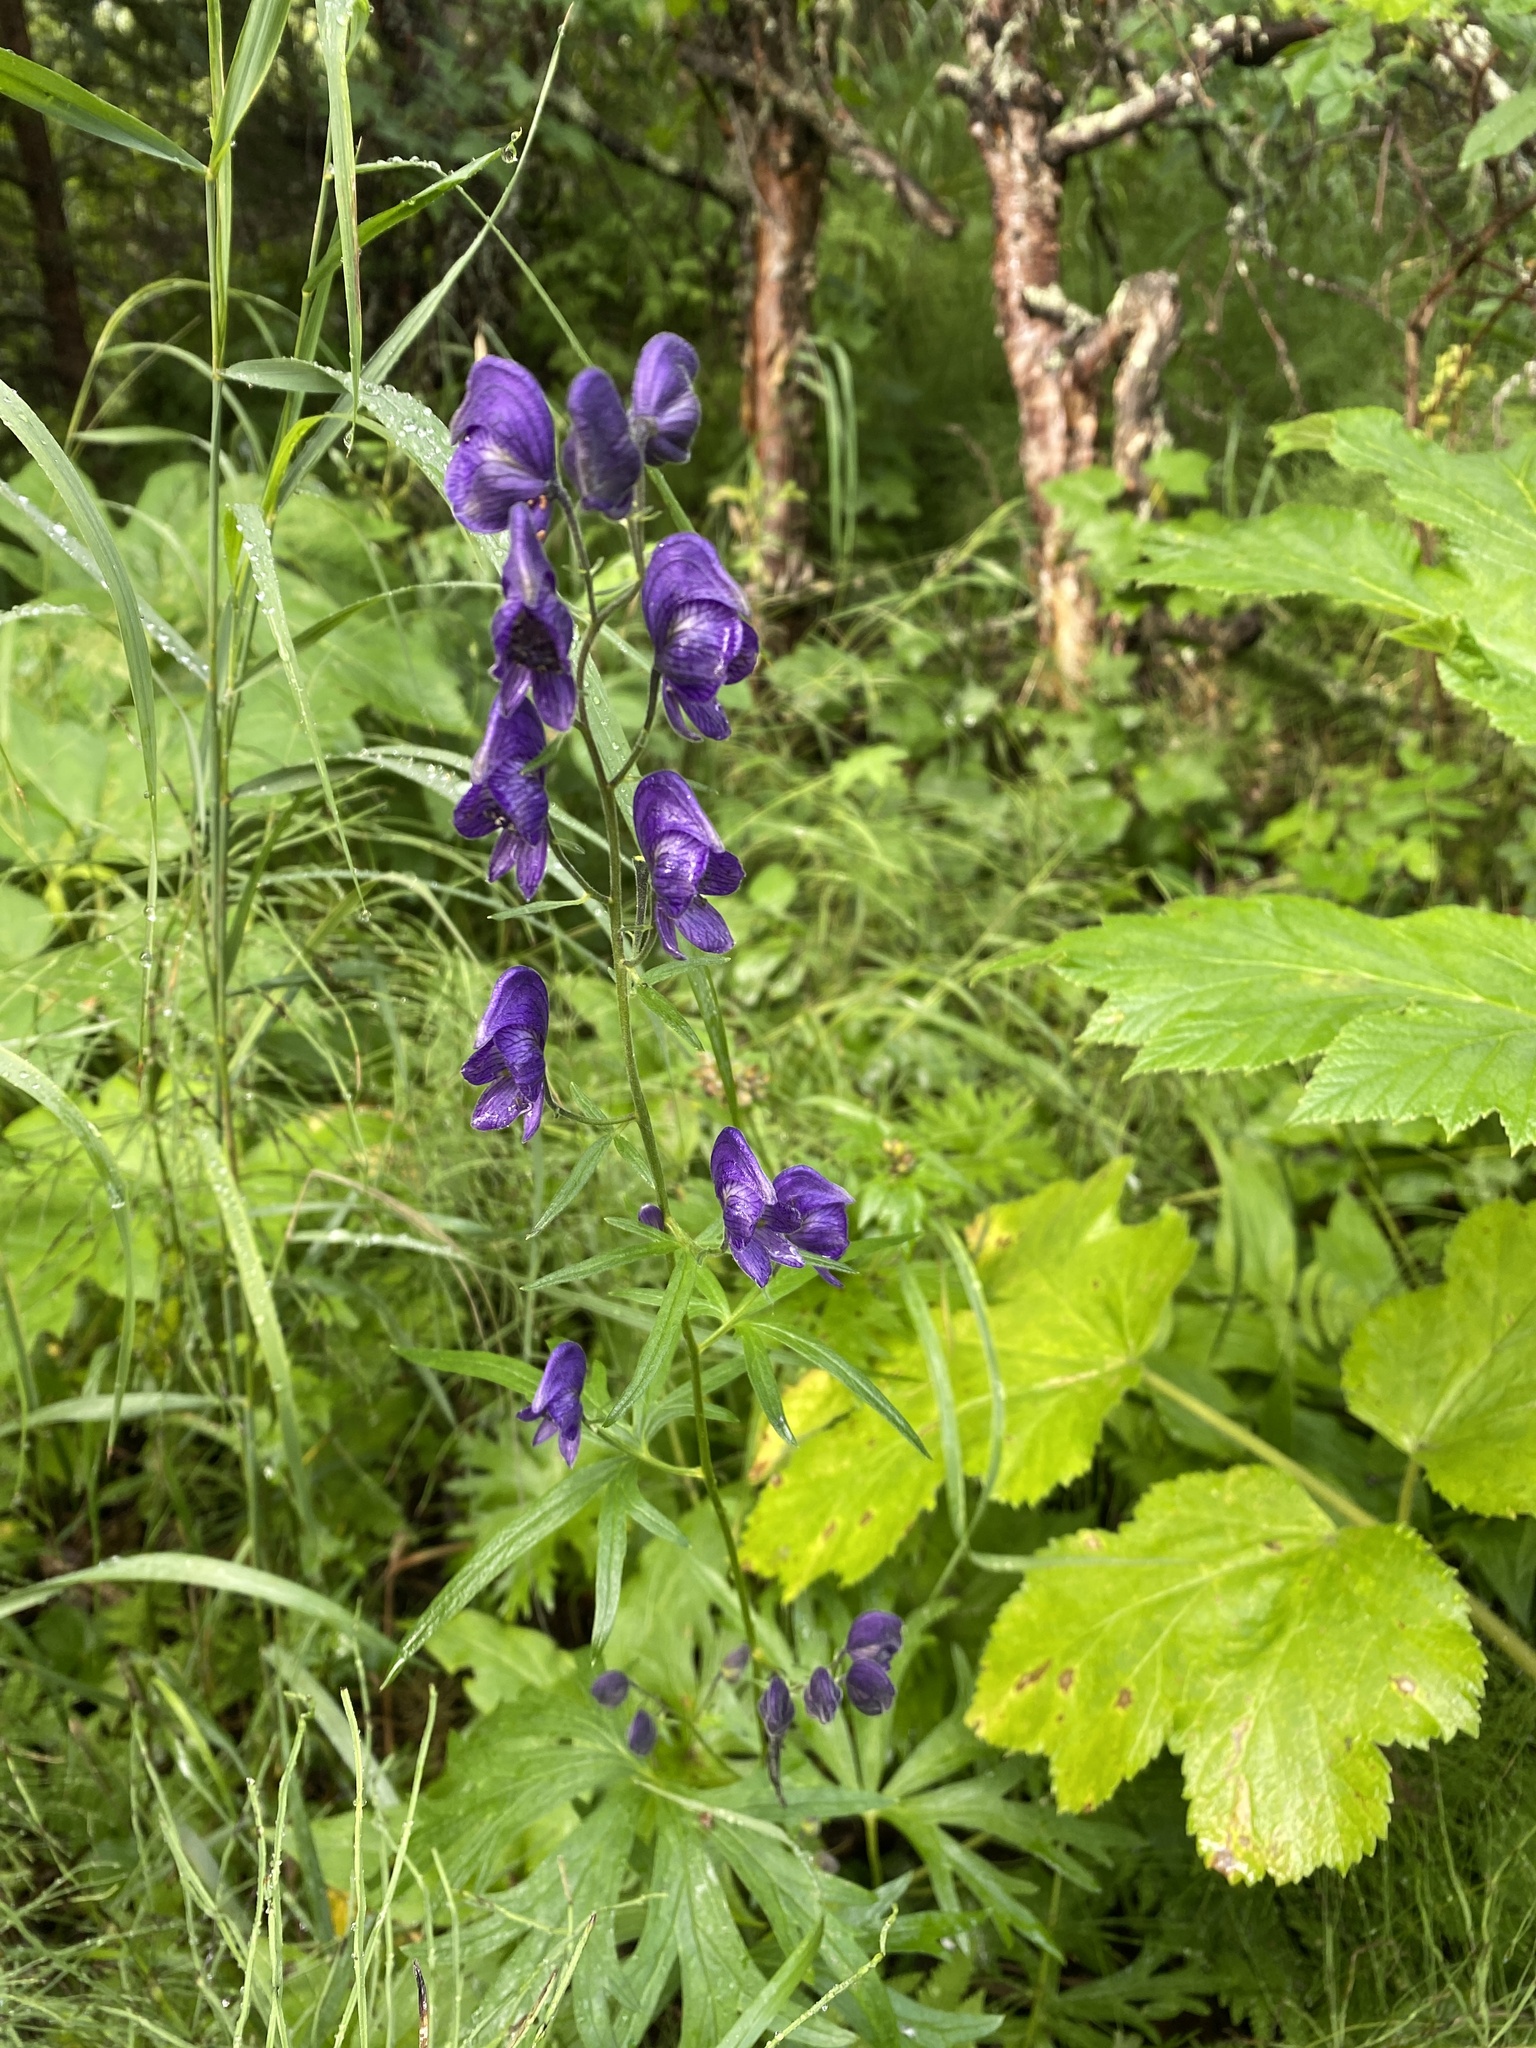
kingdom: Plantae
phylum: Tracheophyta
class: Magnoliopsida
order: Ranunculales
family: Ranunculaceae
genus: Aconitum
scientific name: Aconitum delphiniifolium
